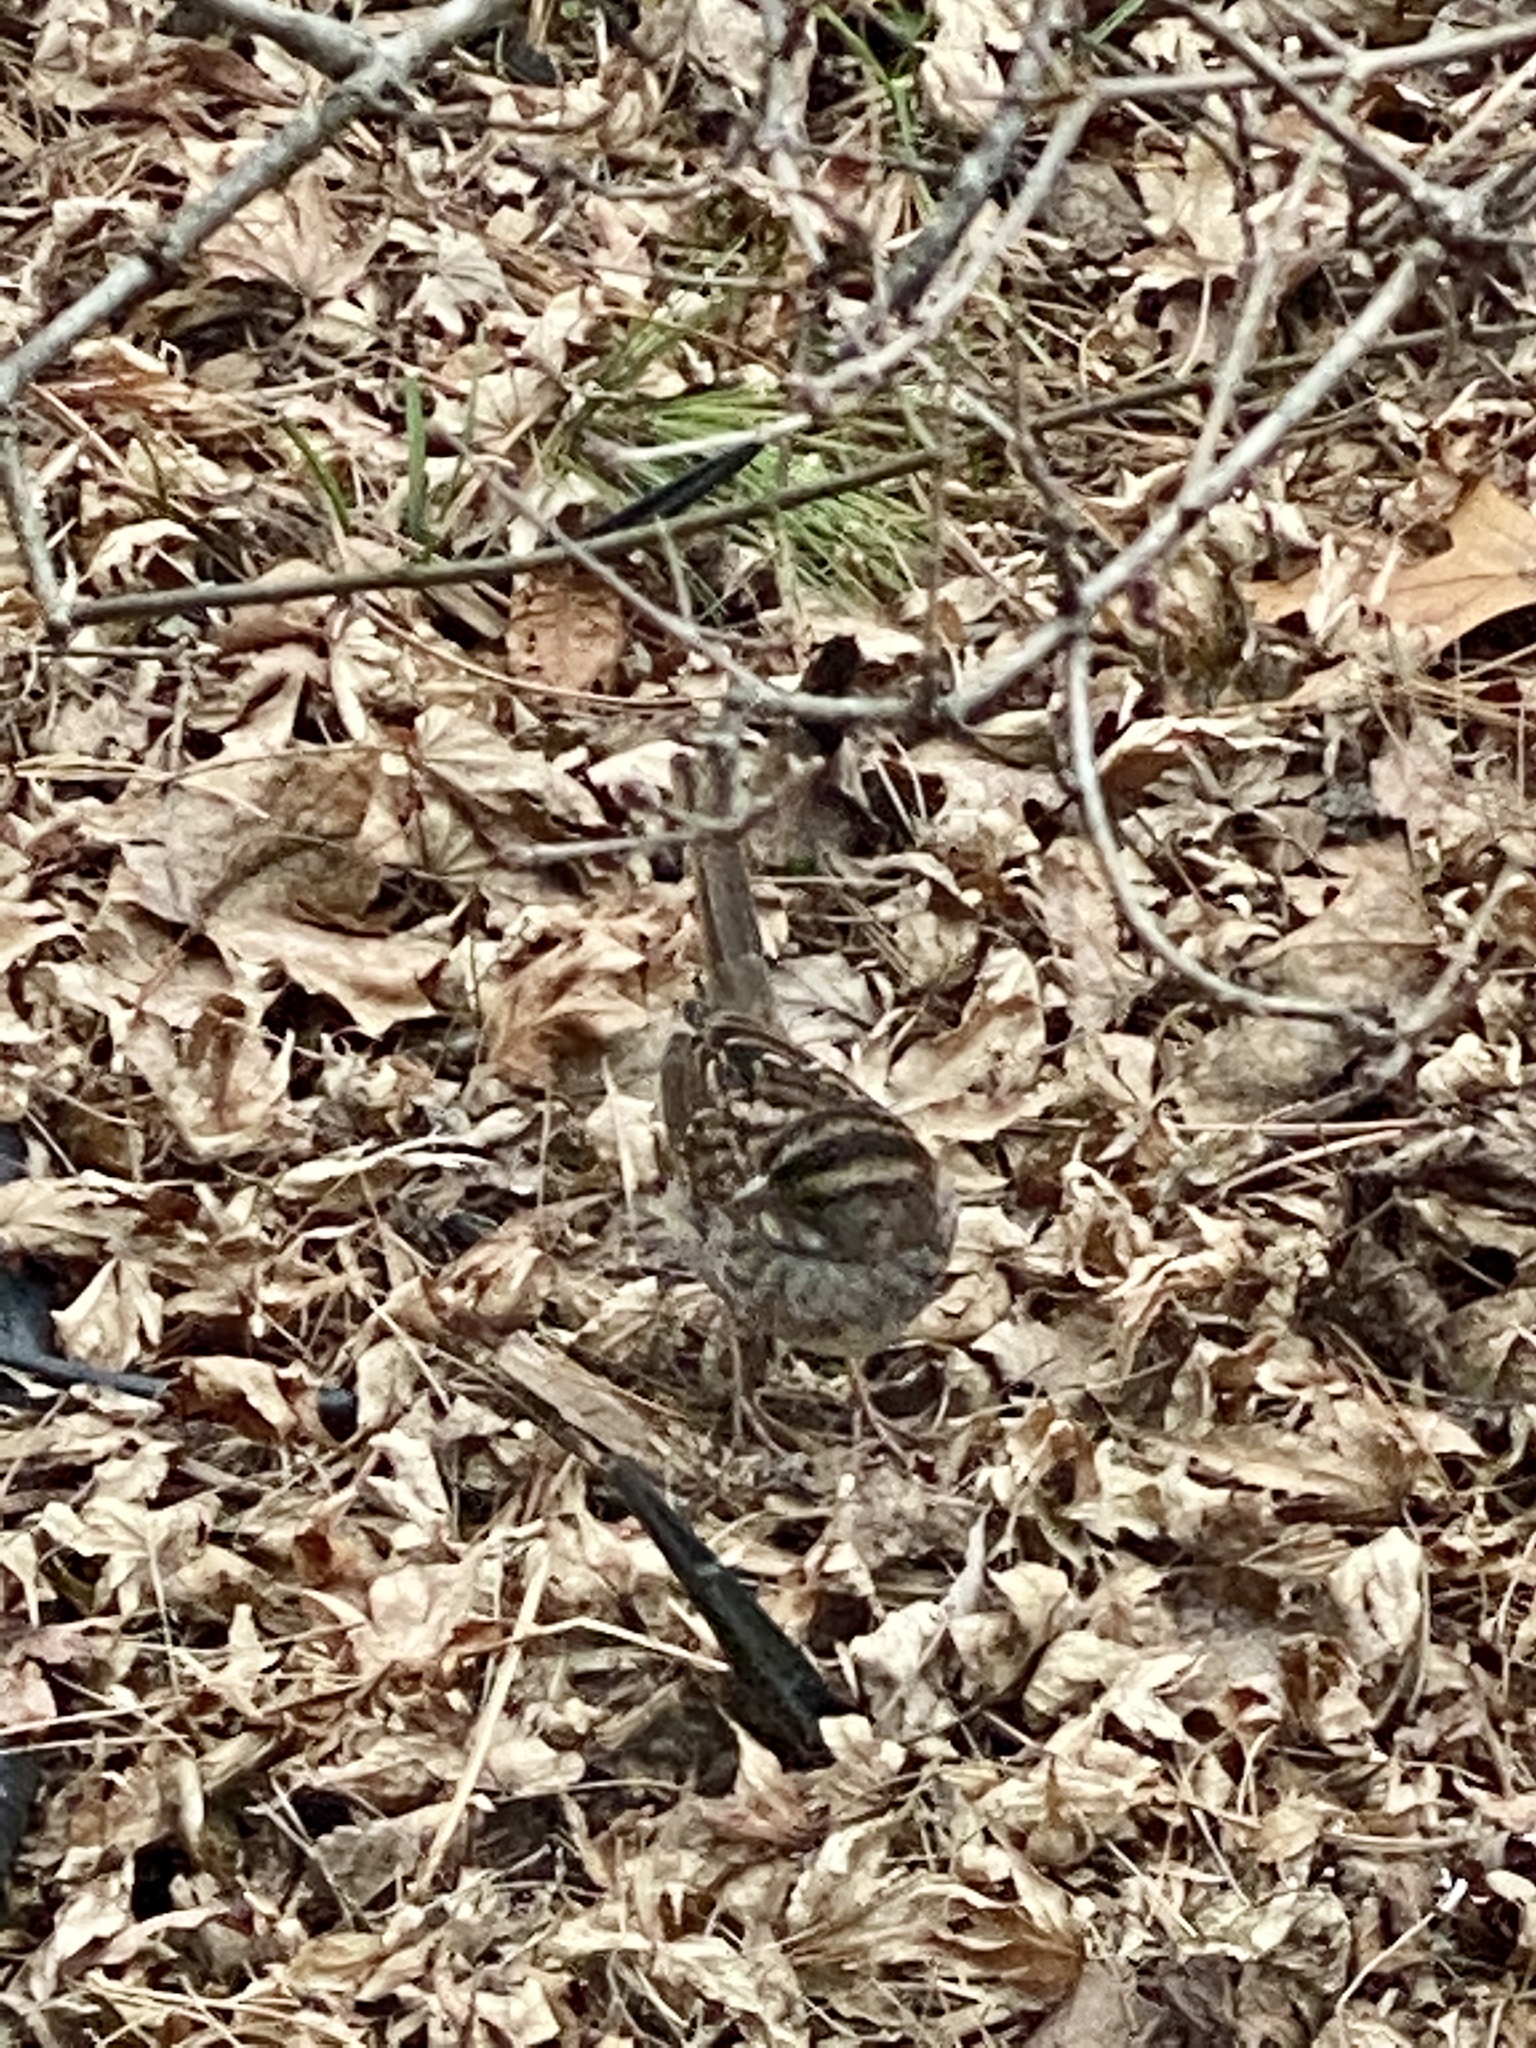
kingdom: Animalia
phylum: Chordata
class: Aves
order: Passeriformes
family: Passerellidae
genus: Zonotrichia
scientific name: Zonotrichia albicollis
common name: White-throated sparrow
